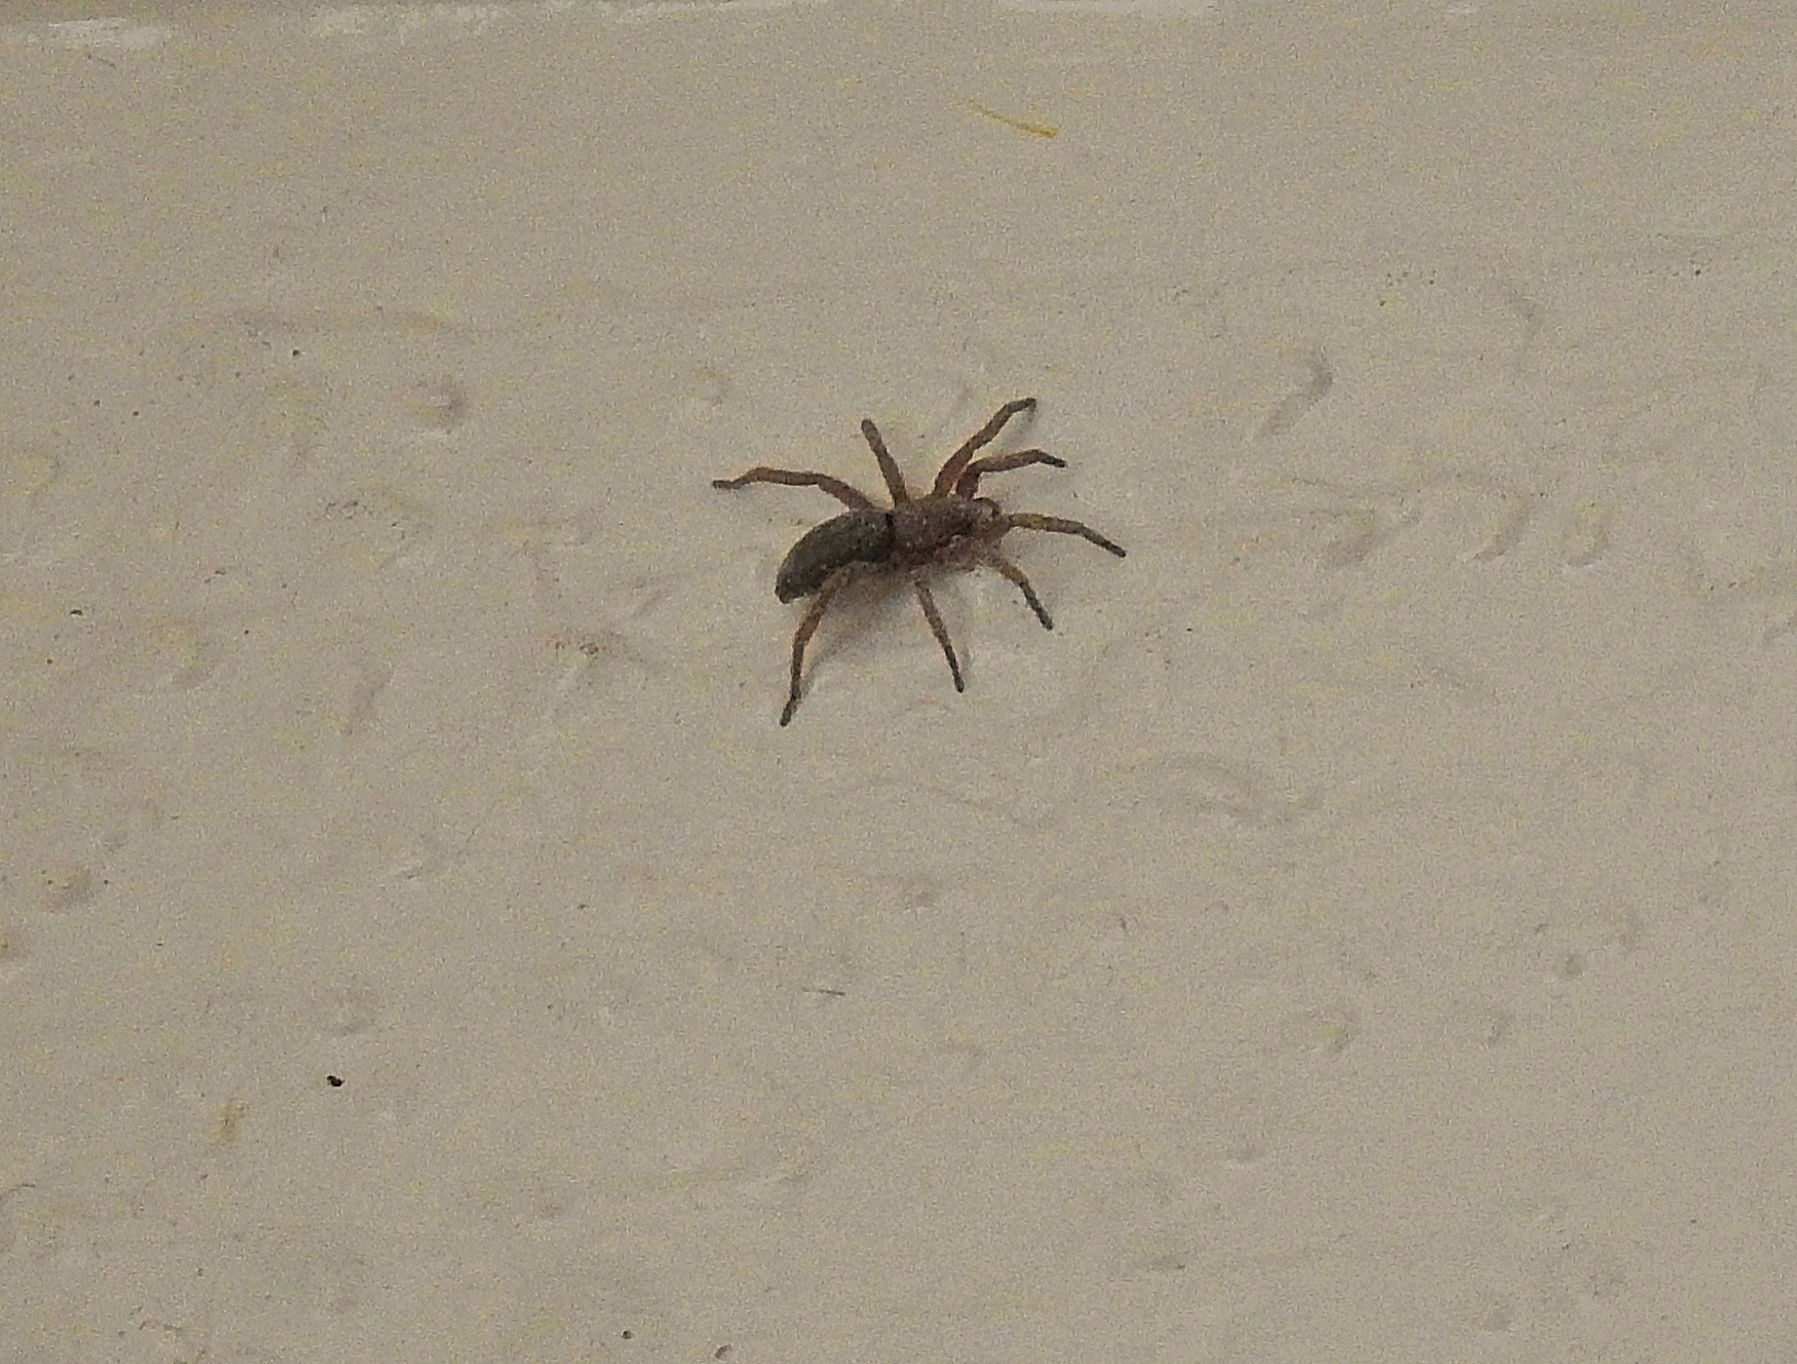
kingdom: Animalia
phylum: Arthropoda
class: Arachnida
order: Araneae
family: Gnaphosidae
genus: Scotophaeus
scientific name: Scotophaeus blackwalli
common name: Mouse spider
